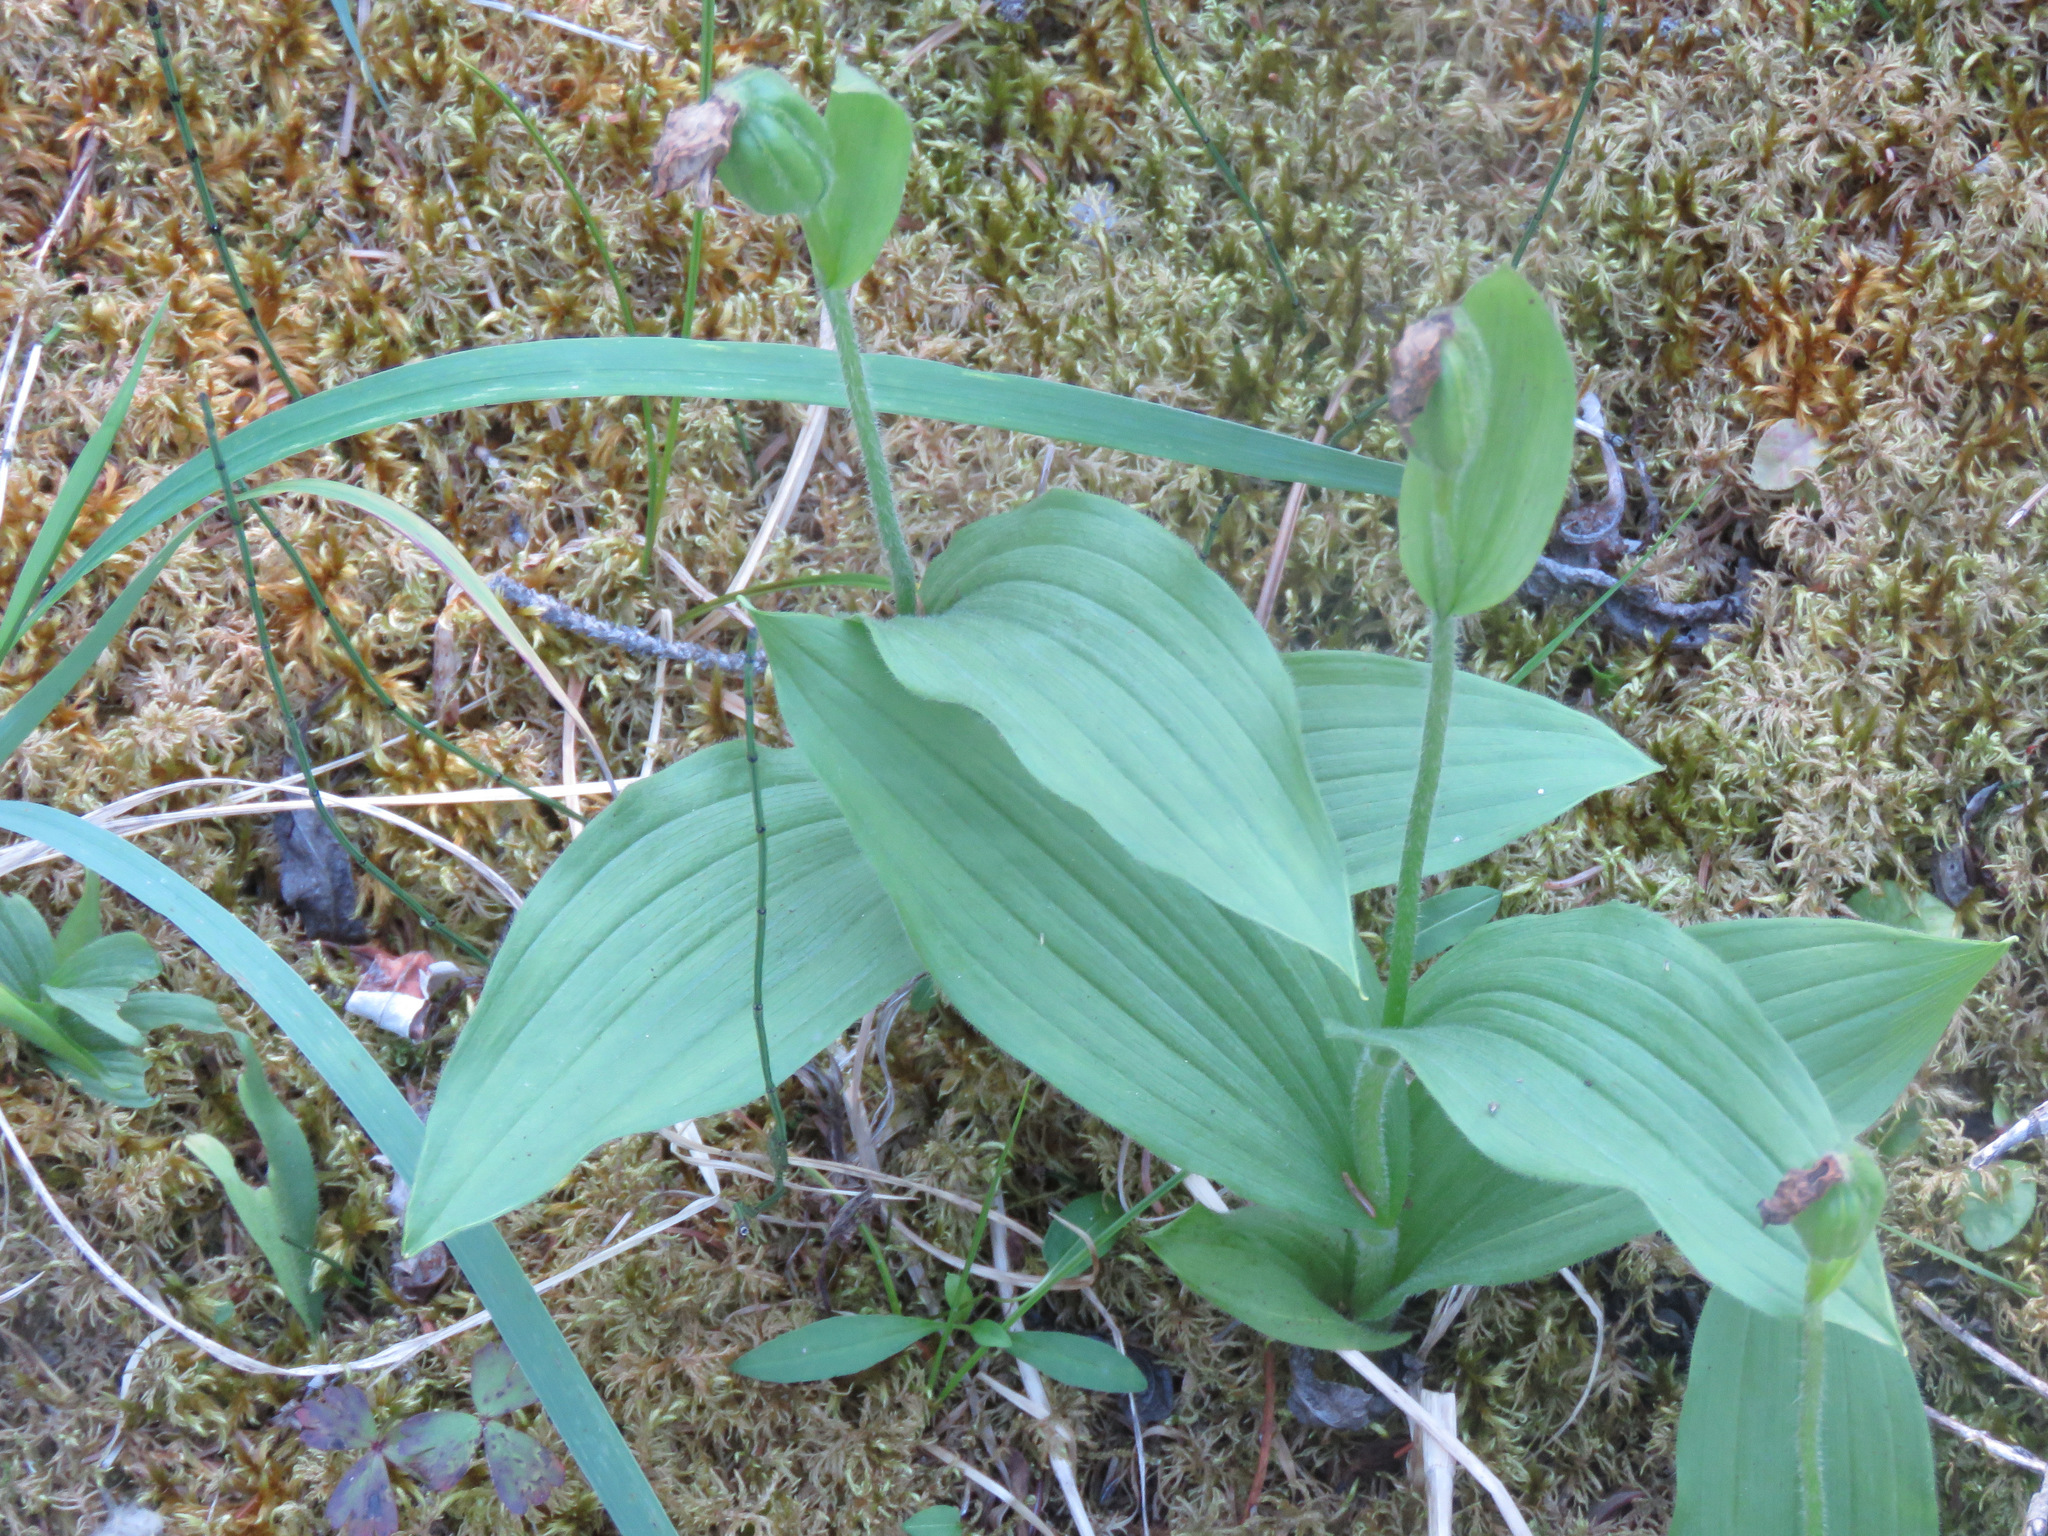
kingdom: Plantae
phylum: Tracheophyta
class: Liliopsida
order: Asparagales
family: Orchidaceae
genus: Cypripedium
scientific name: Cypripedium passerinum
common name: Sparrow's-egg lady's-slipper
